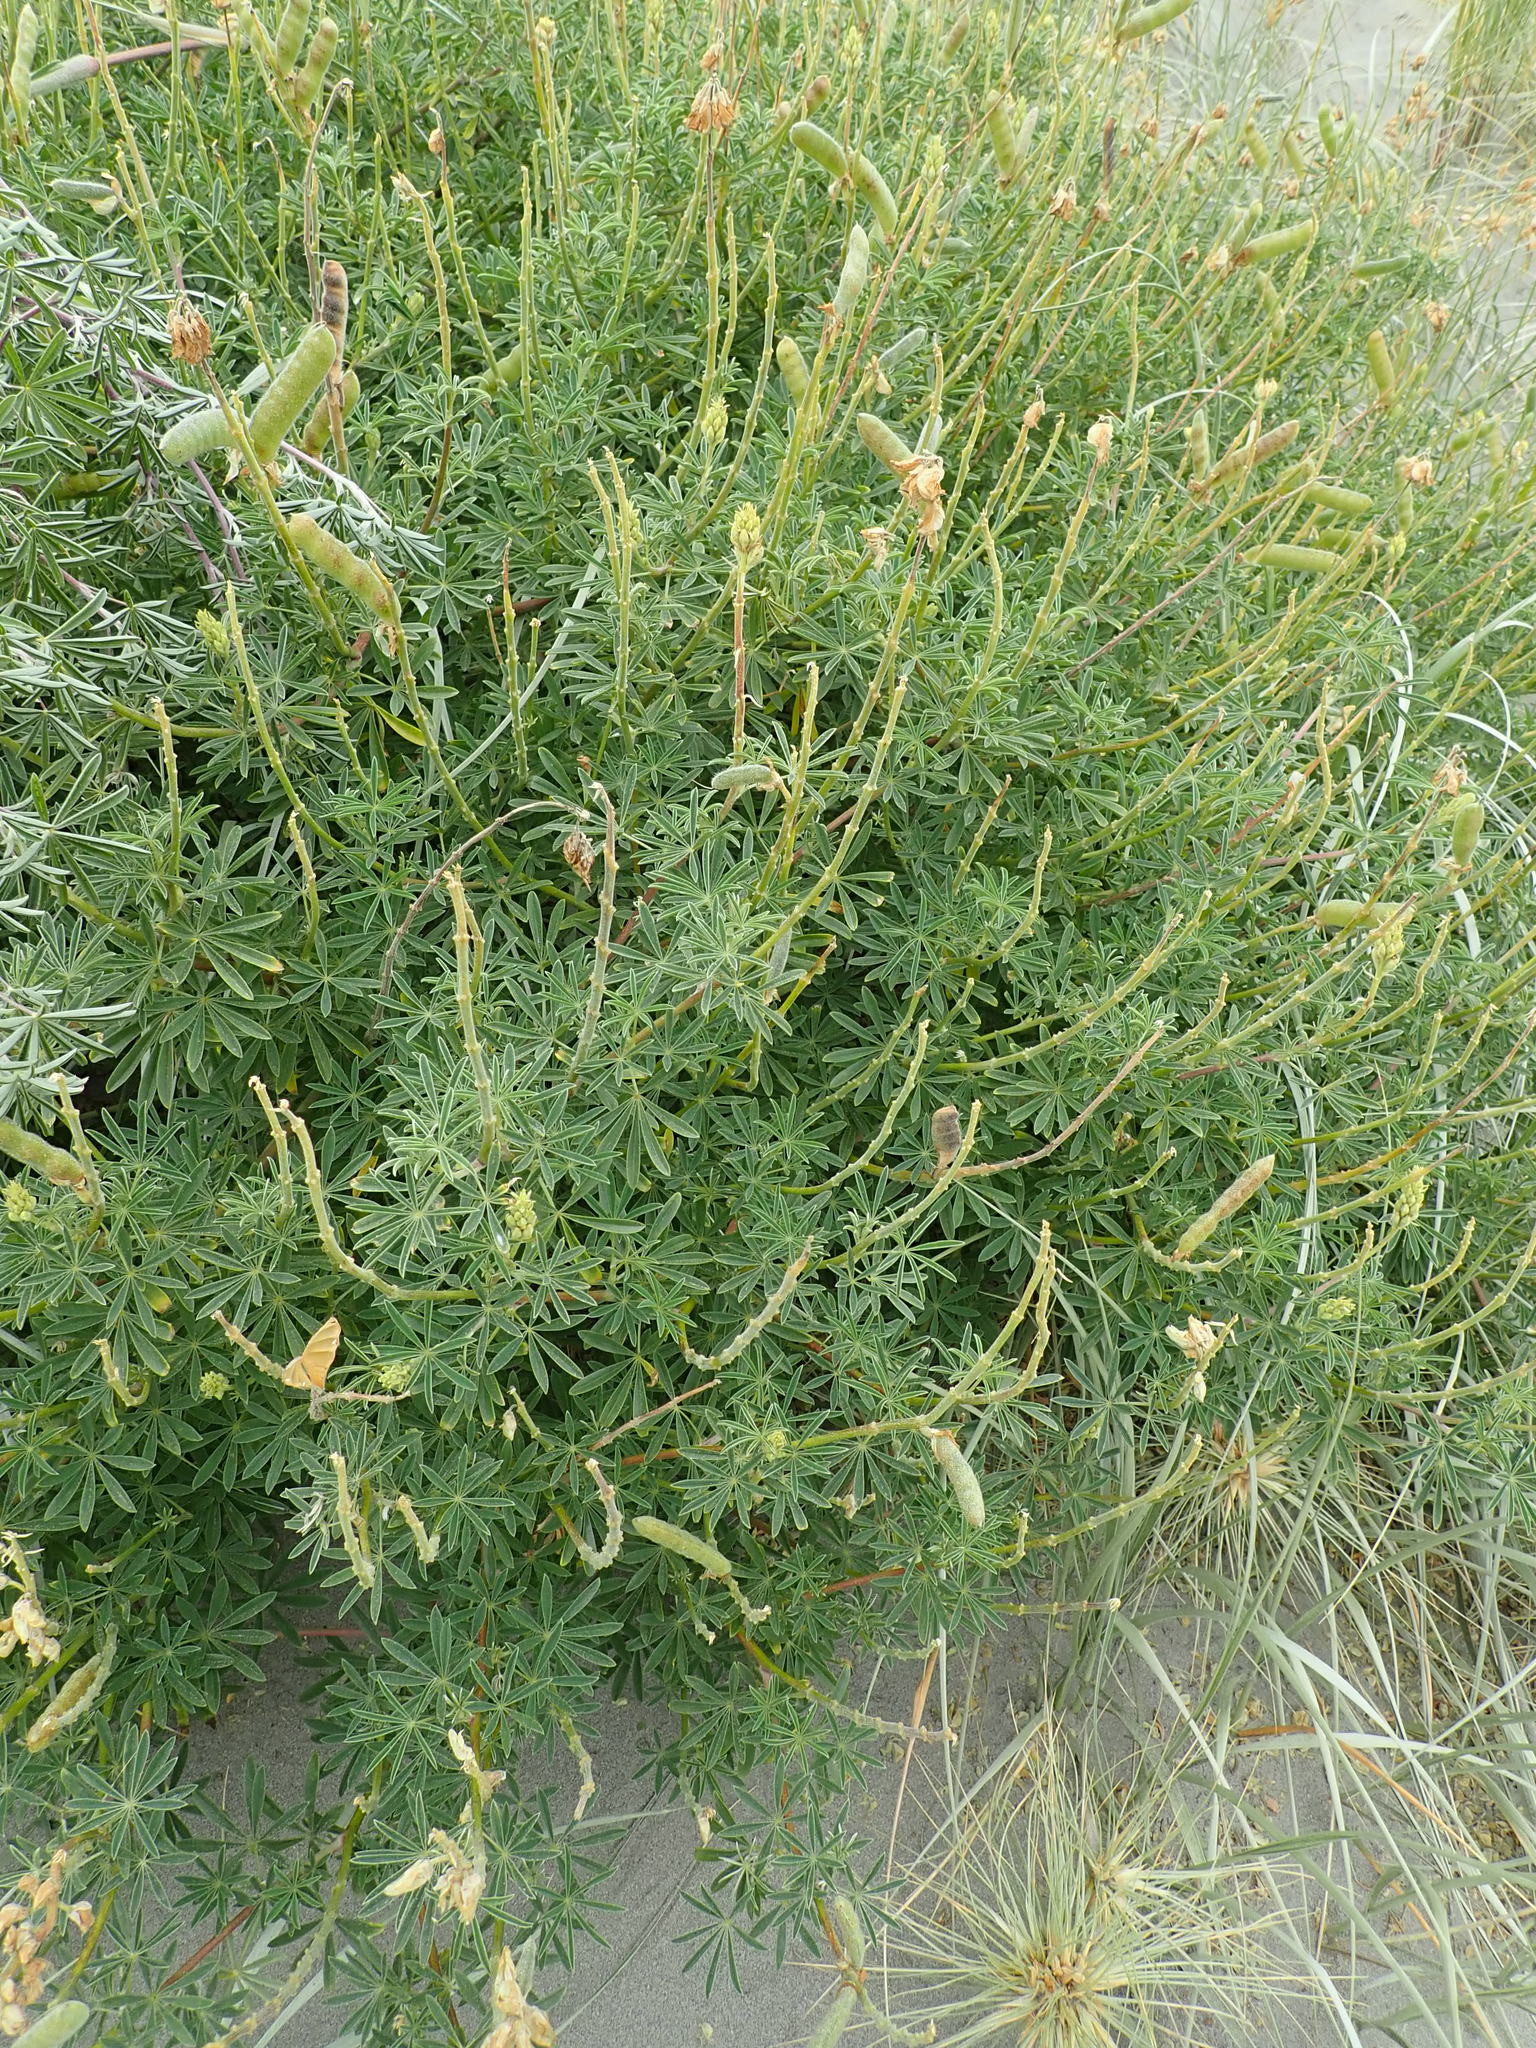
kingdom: Plantae
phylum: Tracheophyta
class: Magnoliopsida
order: Fabales
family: Fabaceae
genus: Lupinus
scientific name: Lupinus arboreus
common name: Yellow bush lupine
